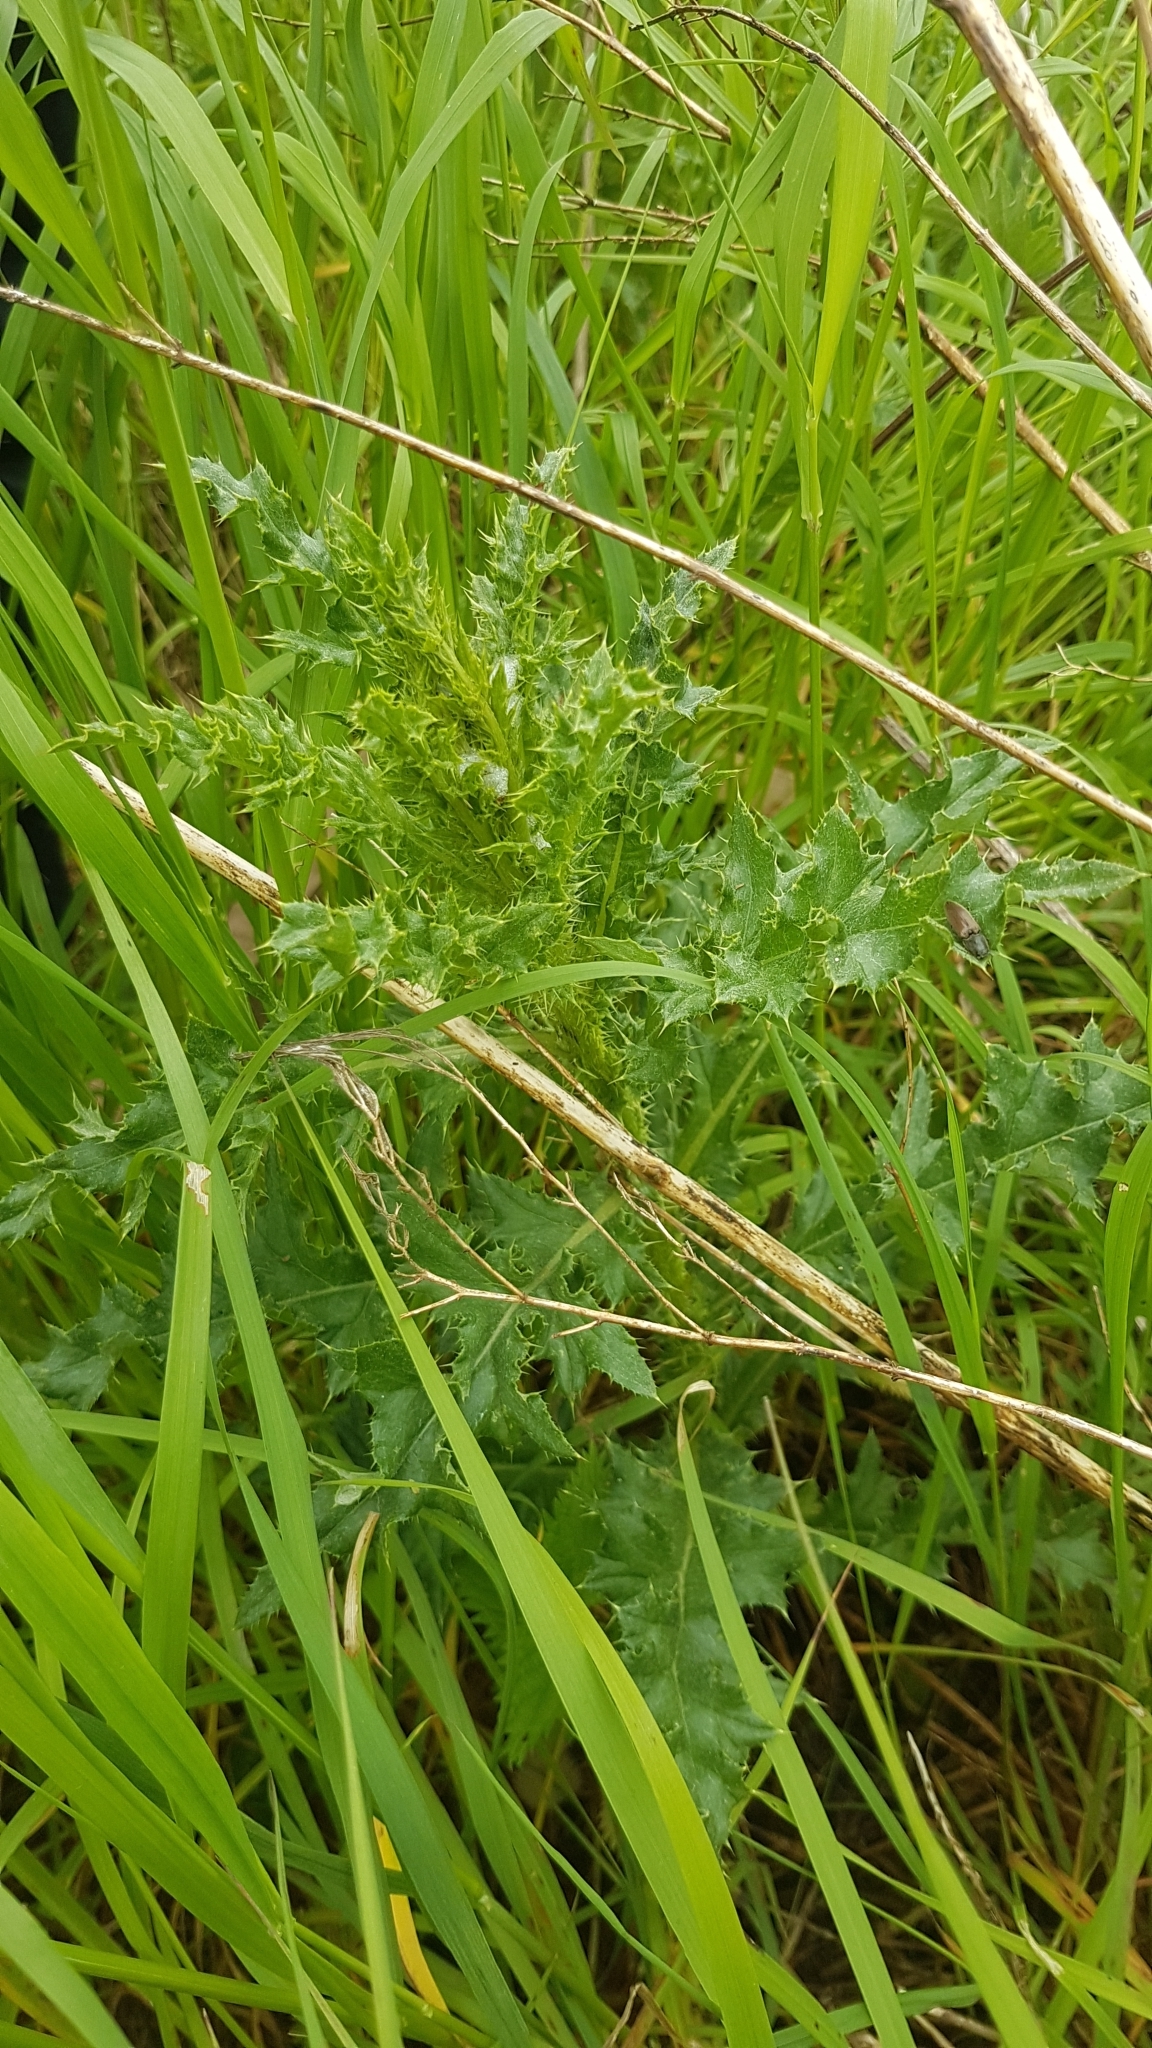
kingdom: Plantae
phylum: Tracheophyta
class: Magnoliopsida
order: Asterales
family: Asteraceae
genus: Cirsium
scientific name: Cirsium arvense
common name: Creeping thistle
